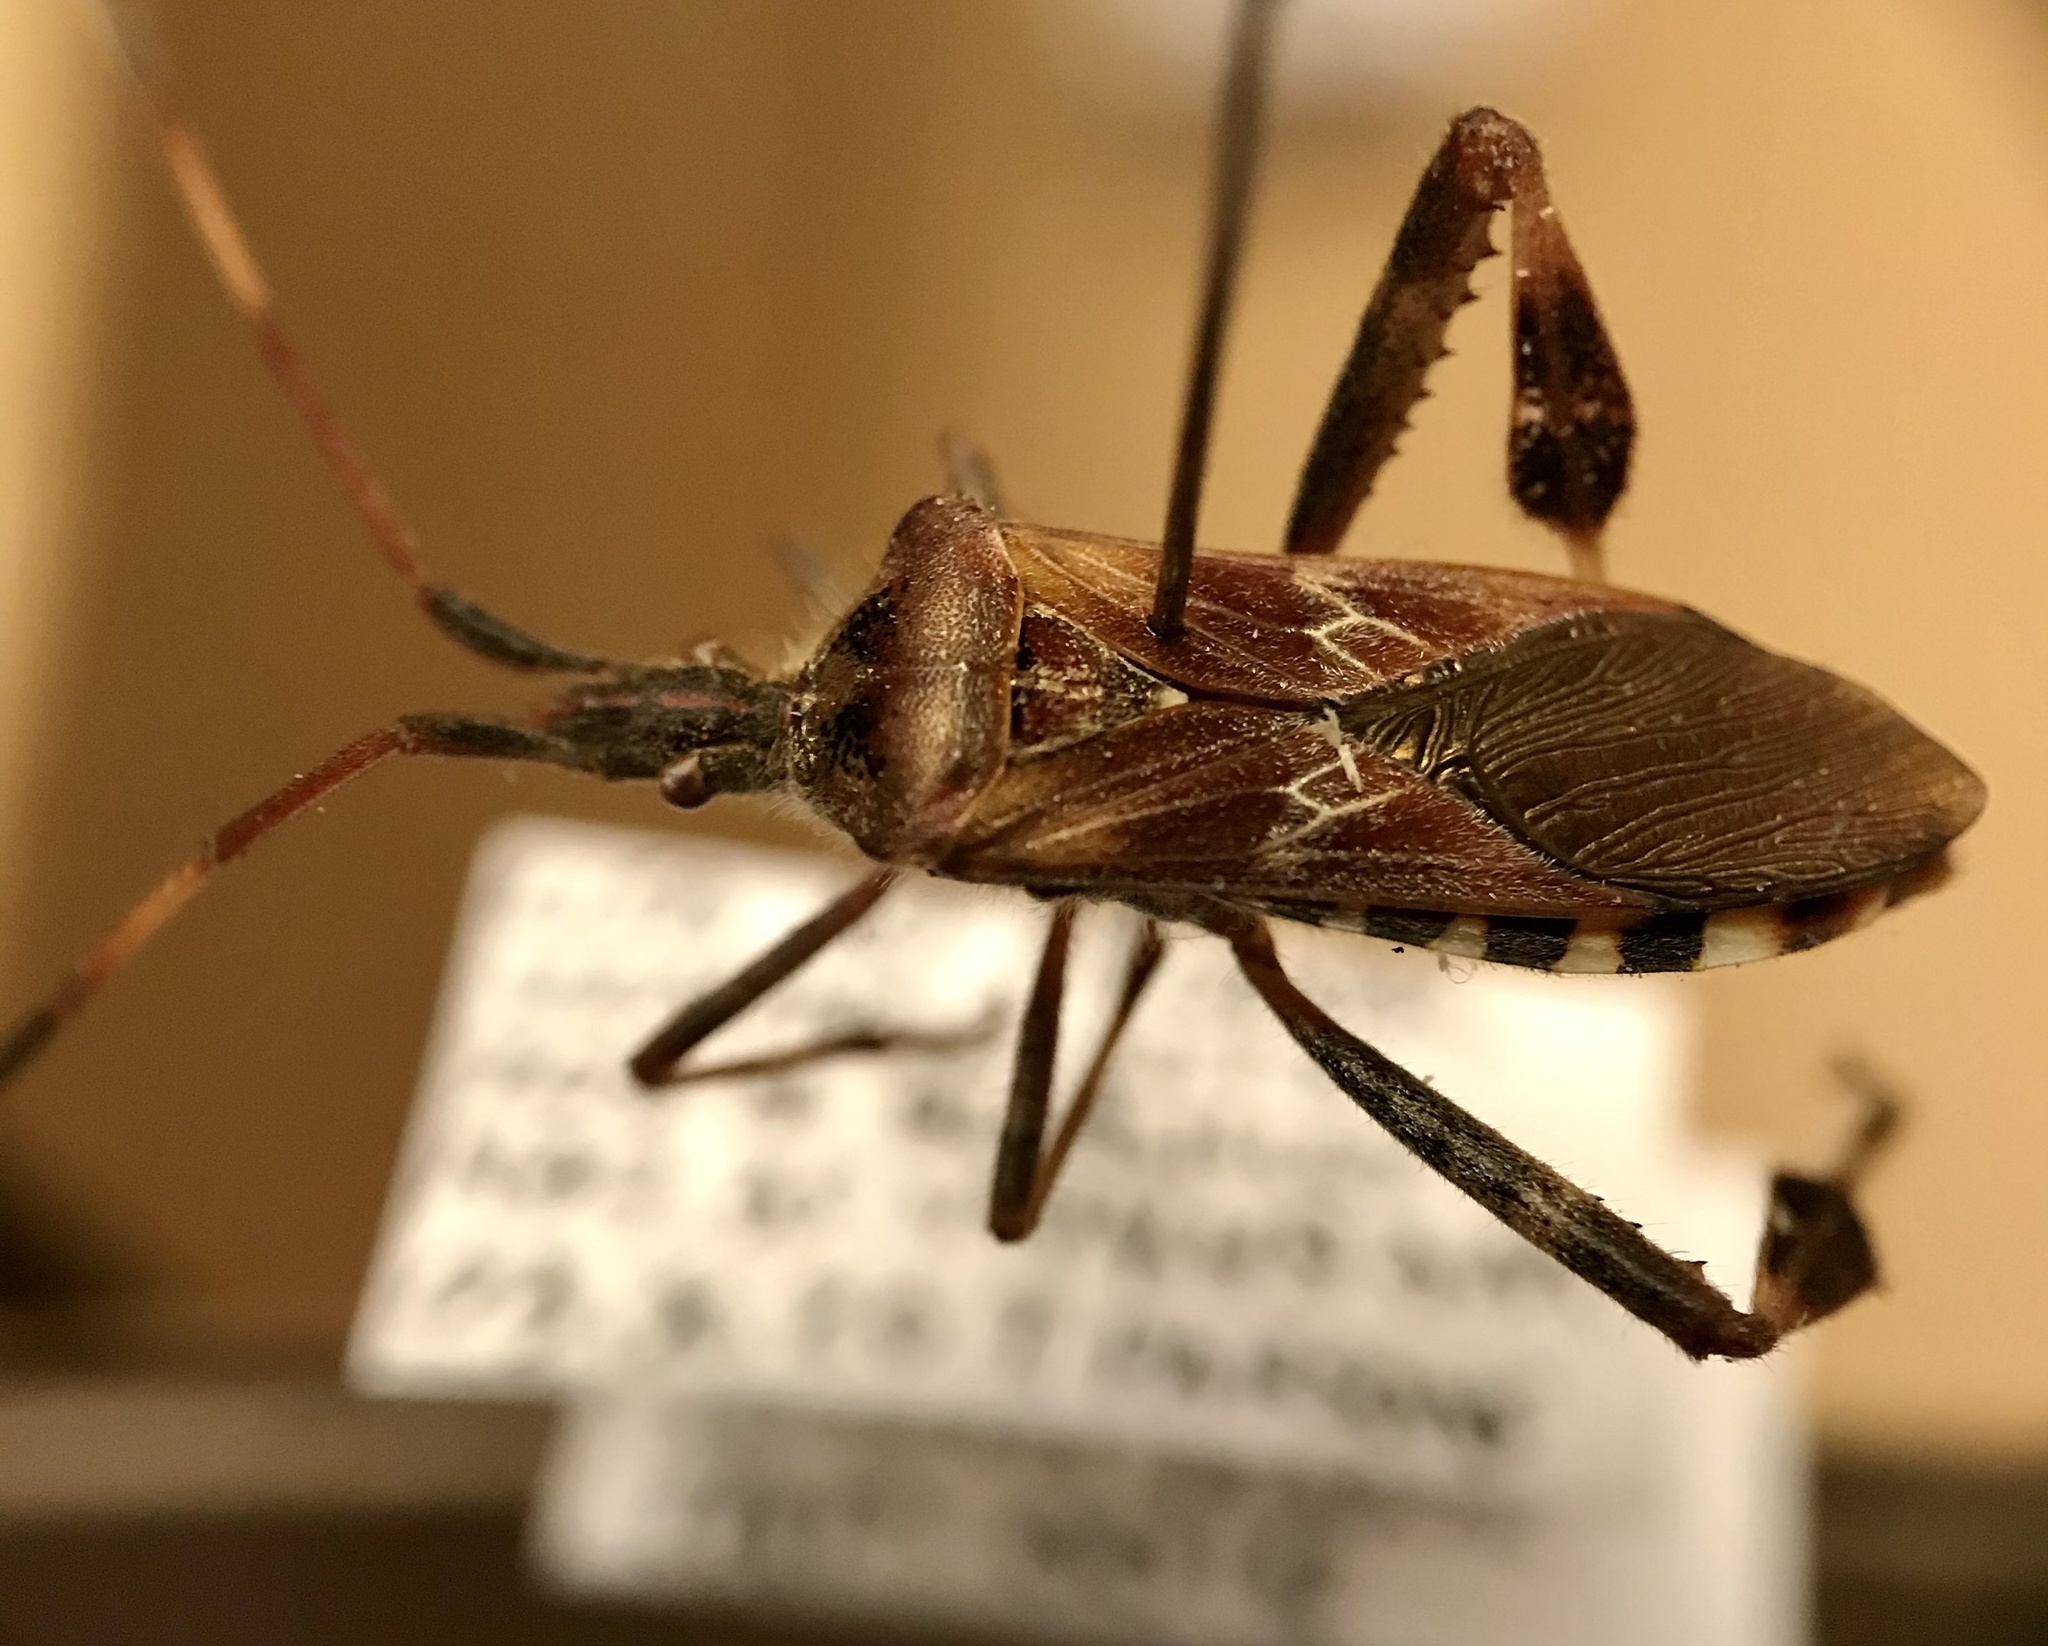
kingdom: Animalia
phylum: Arthropoda
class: Insecta
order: Hemiptera
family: Coreidae
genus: Leptoglossus
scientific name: Leptoglossus occidentalis
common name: Western conifer-seed bug
